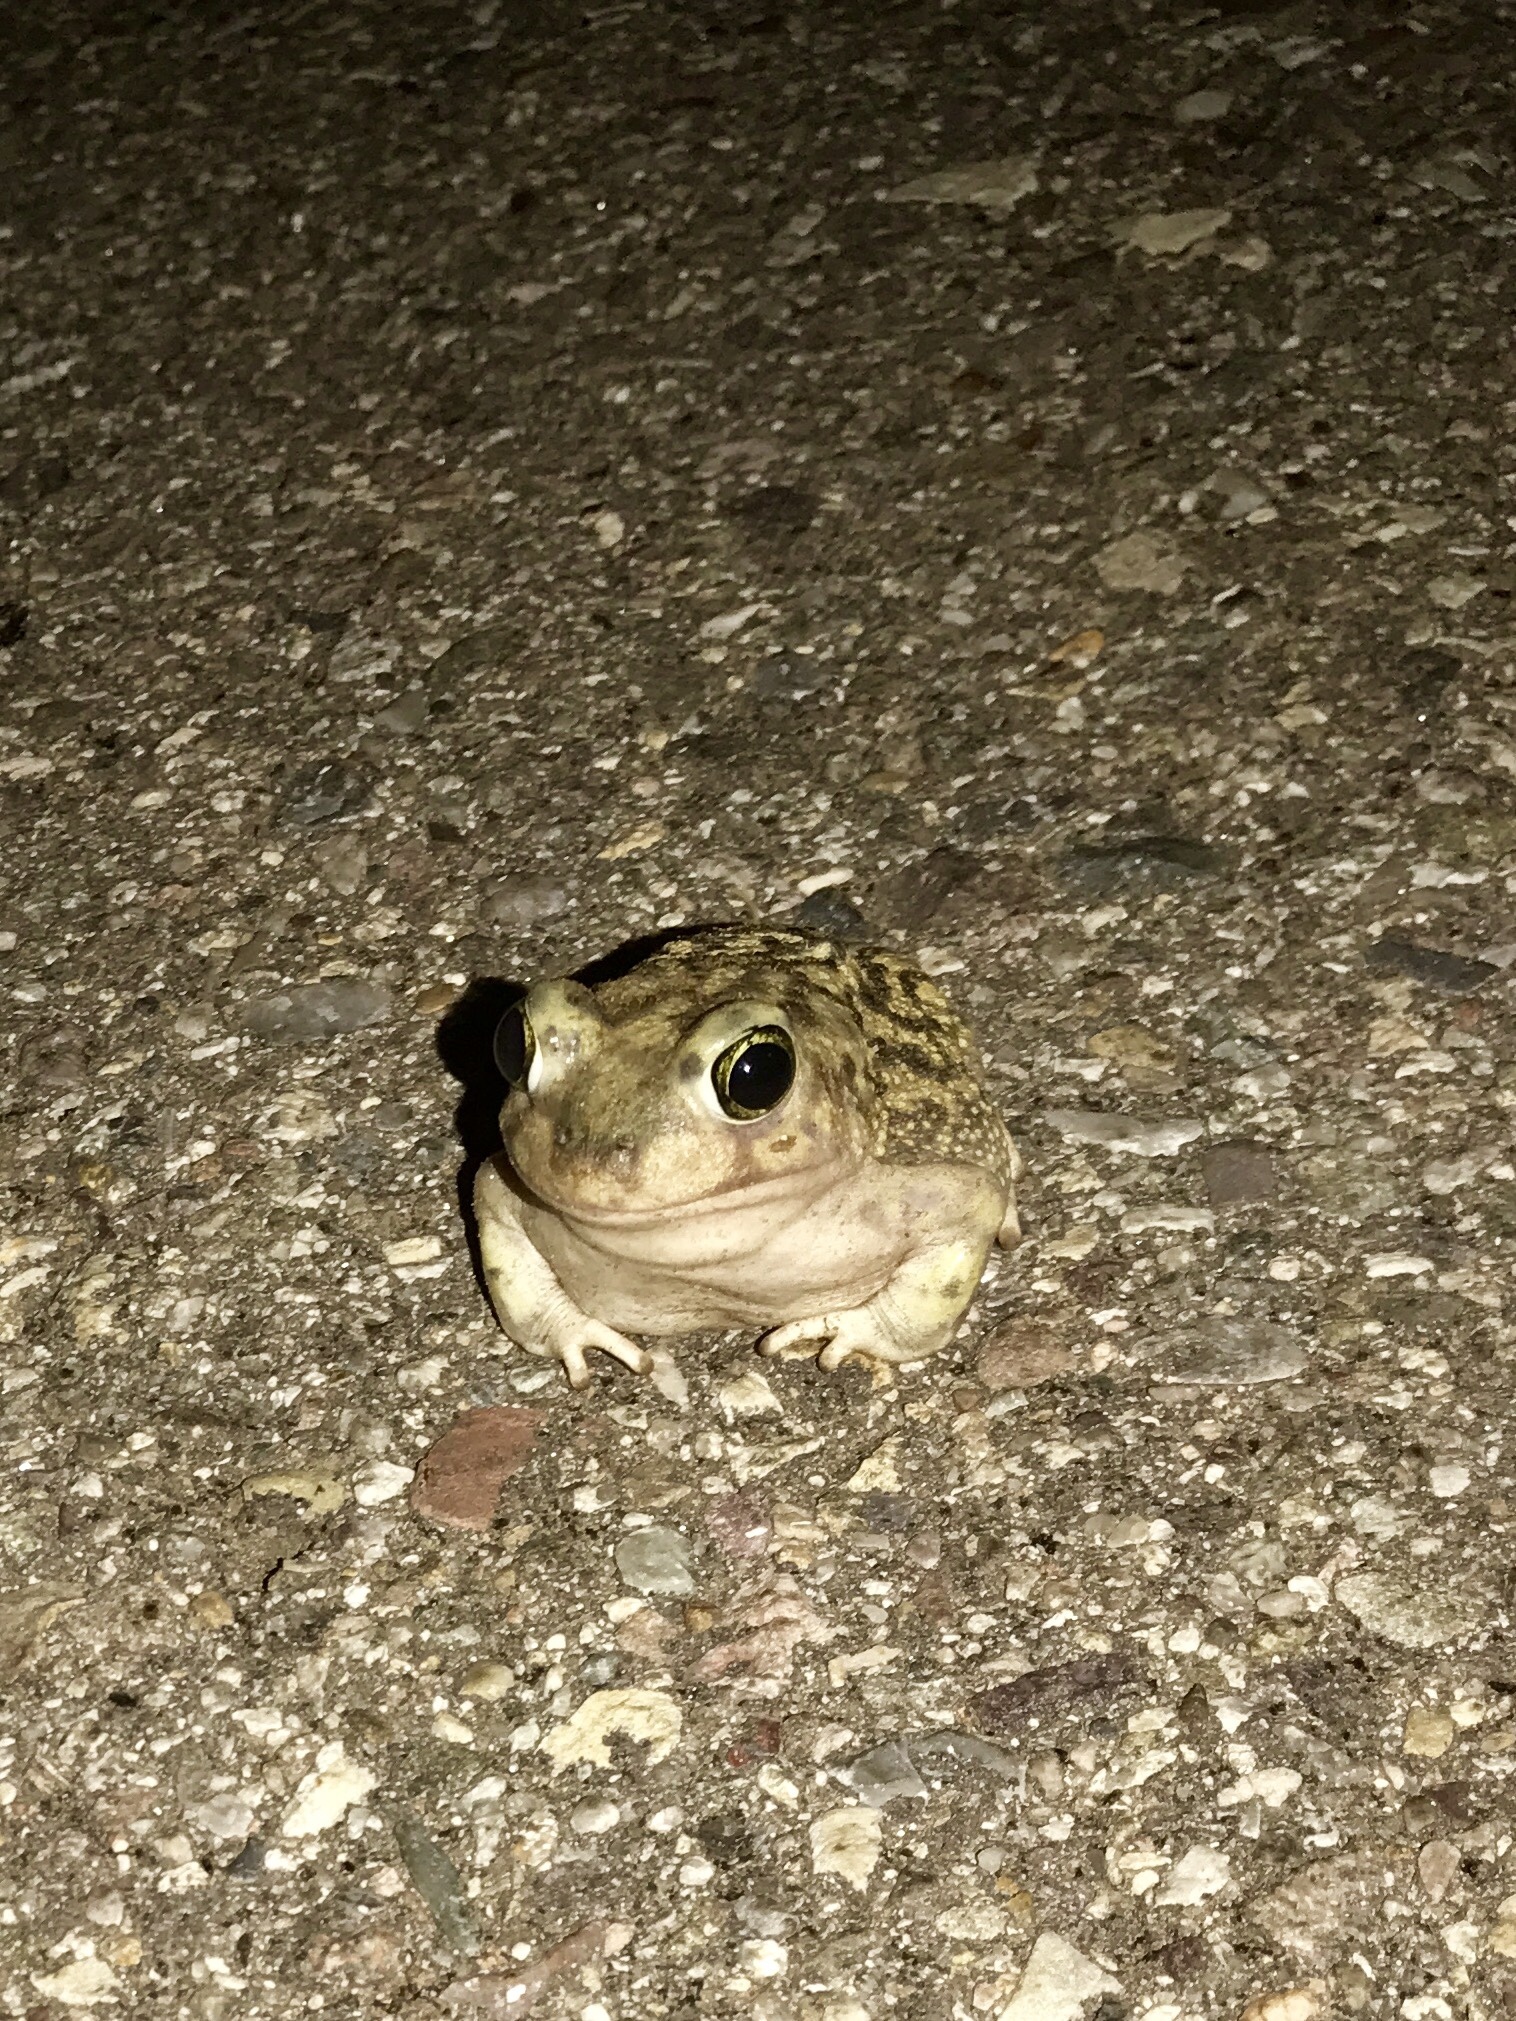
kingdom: Animalia
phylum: Chordata
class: Amphibia
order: Anura
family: Scaphiopodidae
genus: Scaphiopus
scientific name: Scaphiopus couchii
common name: Couch's spadefoot toad
